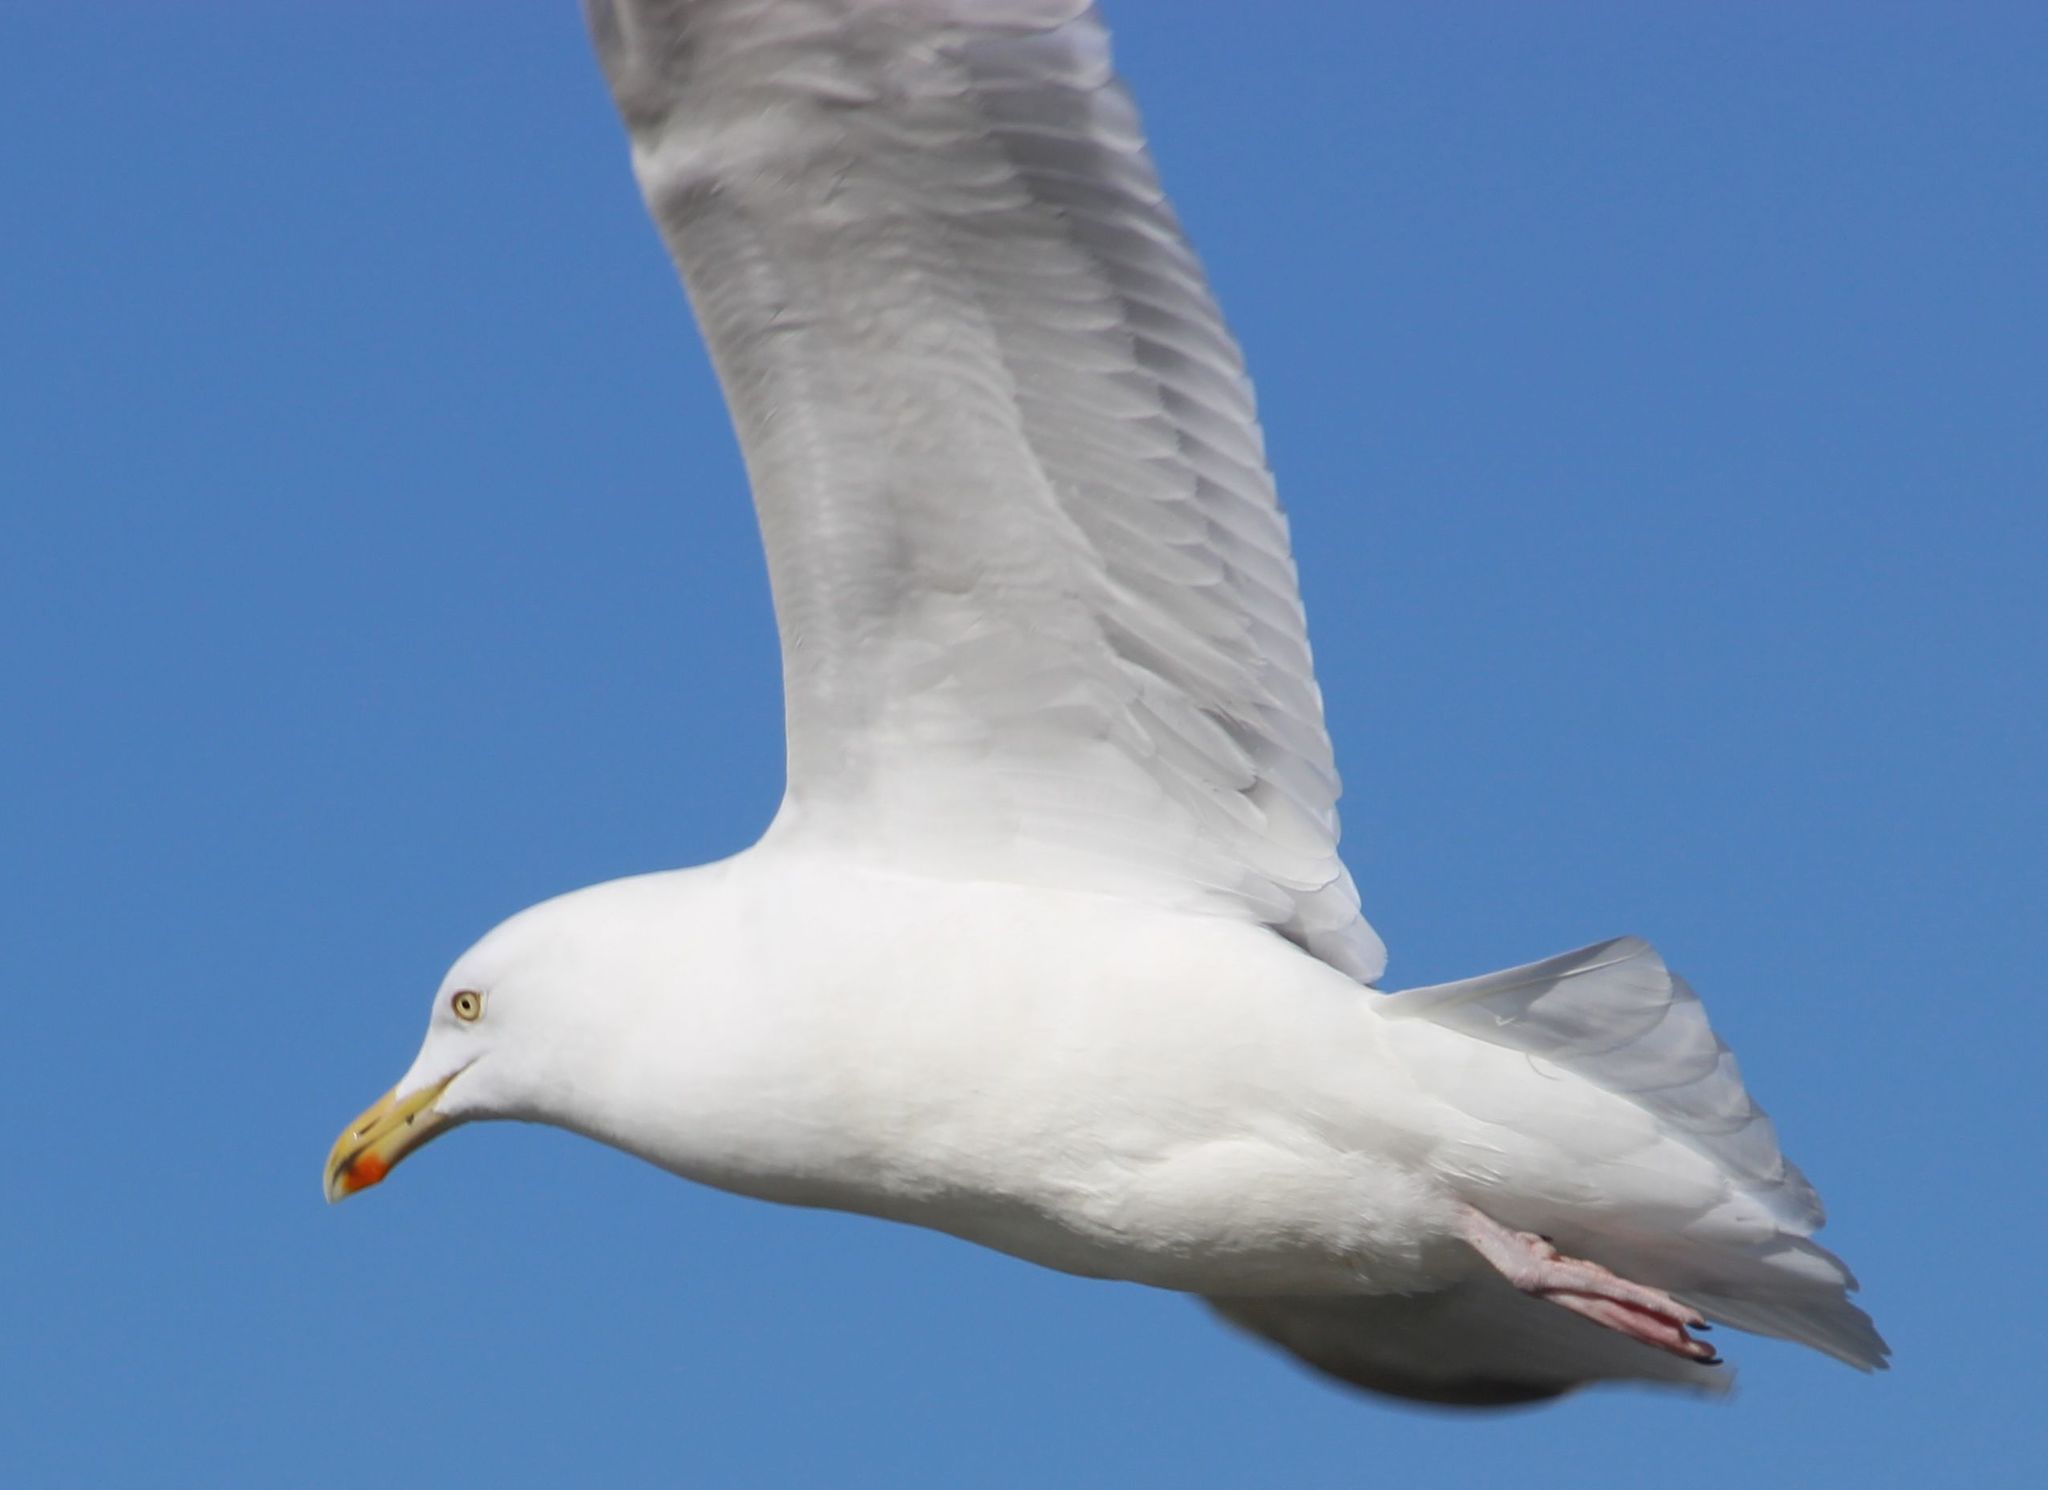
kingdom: Animalia
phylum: Chordata
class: Aves
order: Charadriiformes
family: Laridae
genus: Larus
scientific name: Larus argentatus
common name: Herring gull
